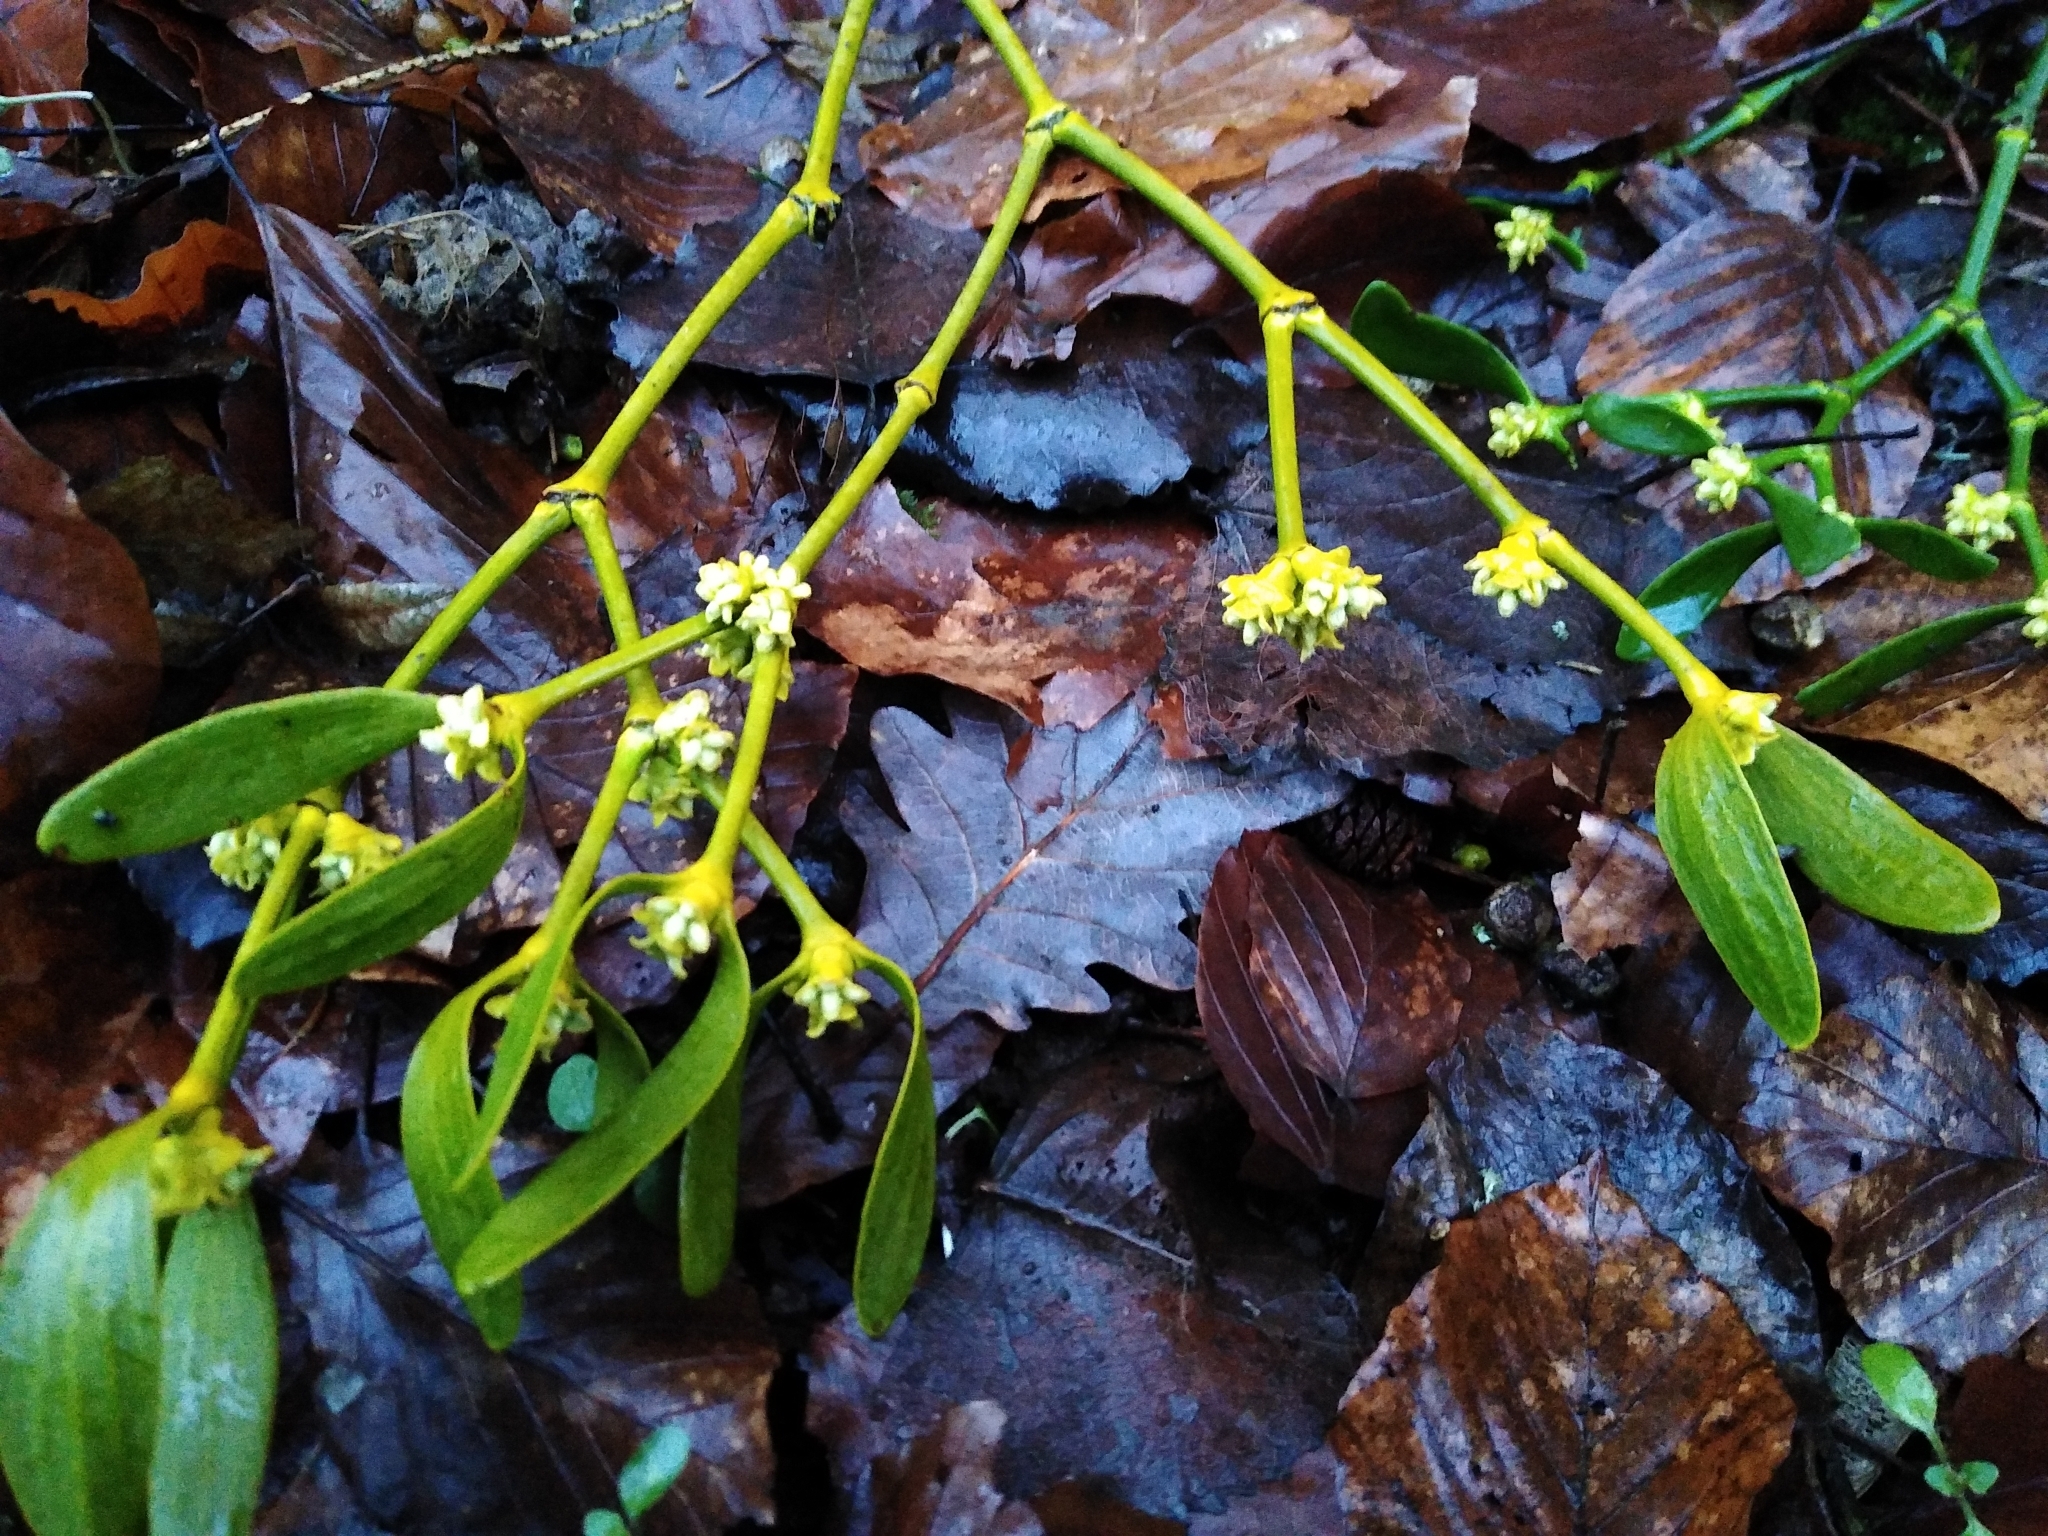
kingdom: Plantae
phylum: Tracheophyta
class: Magnoliopsida
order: Santalales
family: Viscaceae
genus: Viscum
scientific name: Viscum album
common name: Mistletoe
